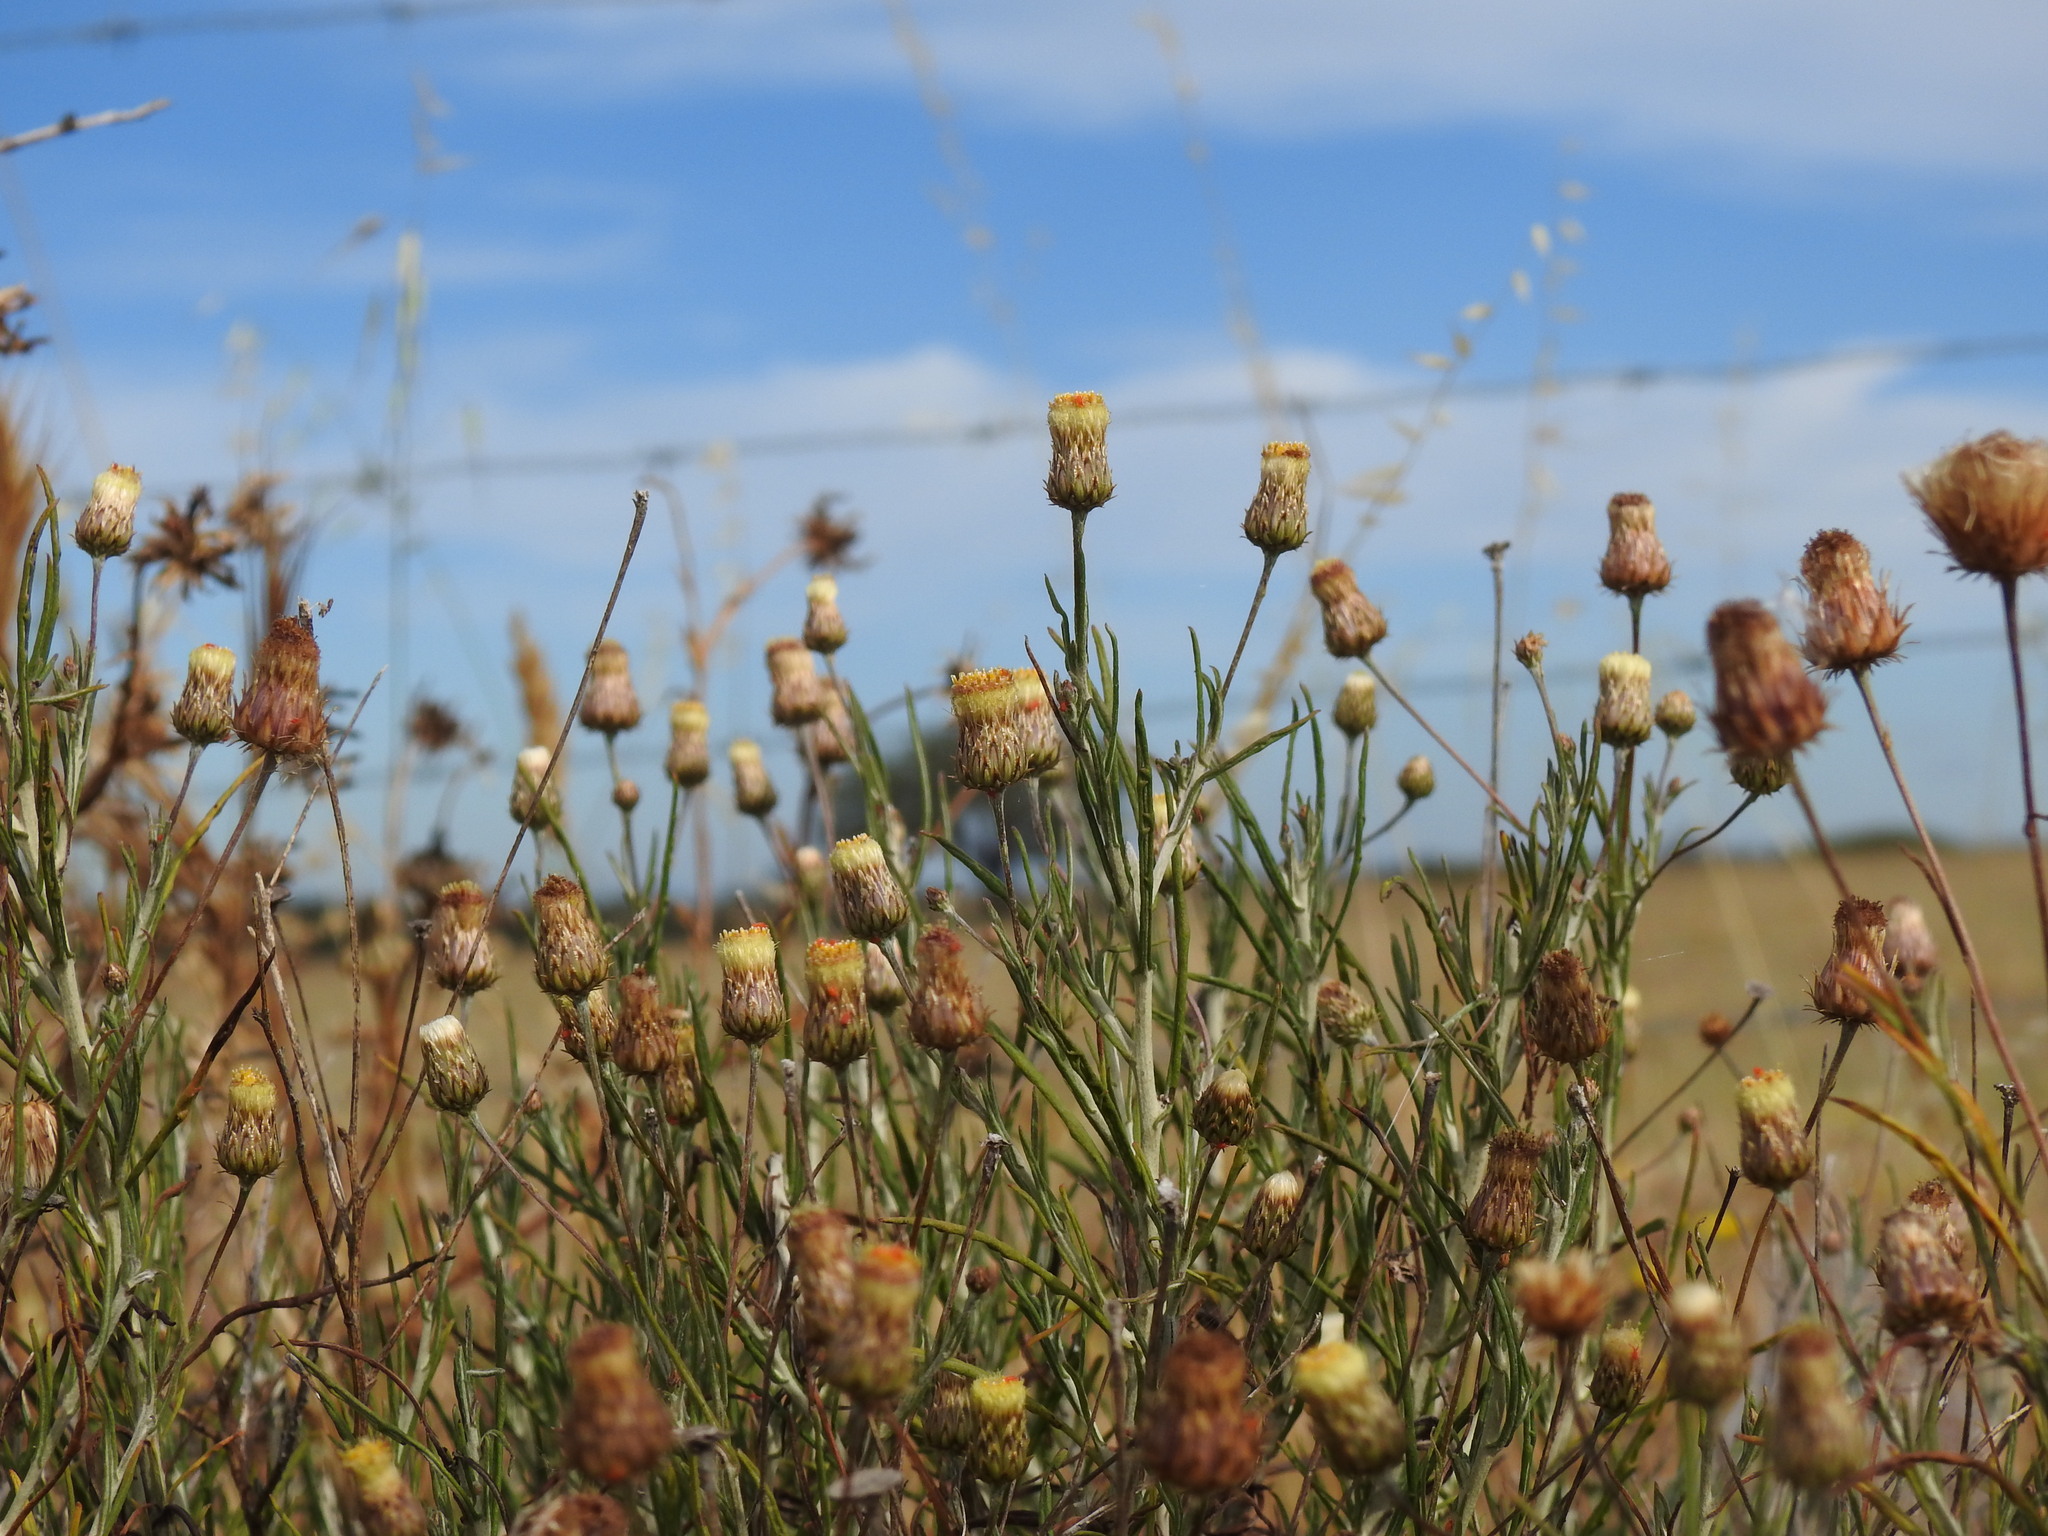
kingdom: Plantae
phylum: Tracheophyta
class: Magnoliopsida
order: Asterales
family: Asteraceae
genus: Phagnalon
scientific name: Phagnalon saxatile
